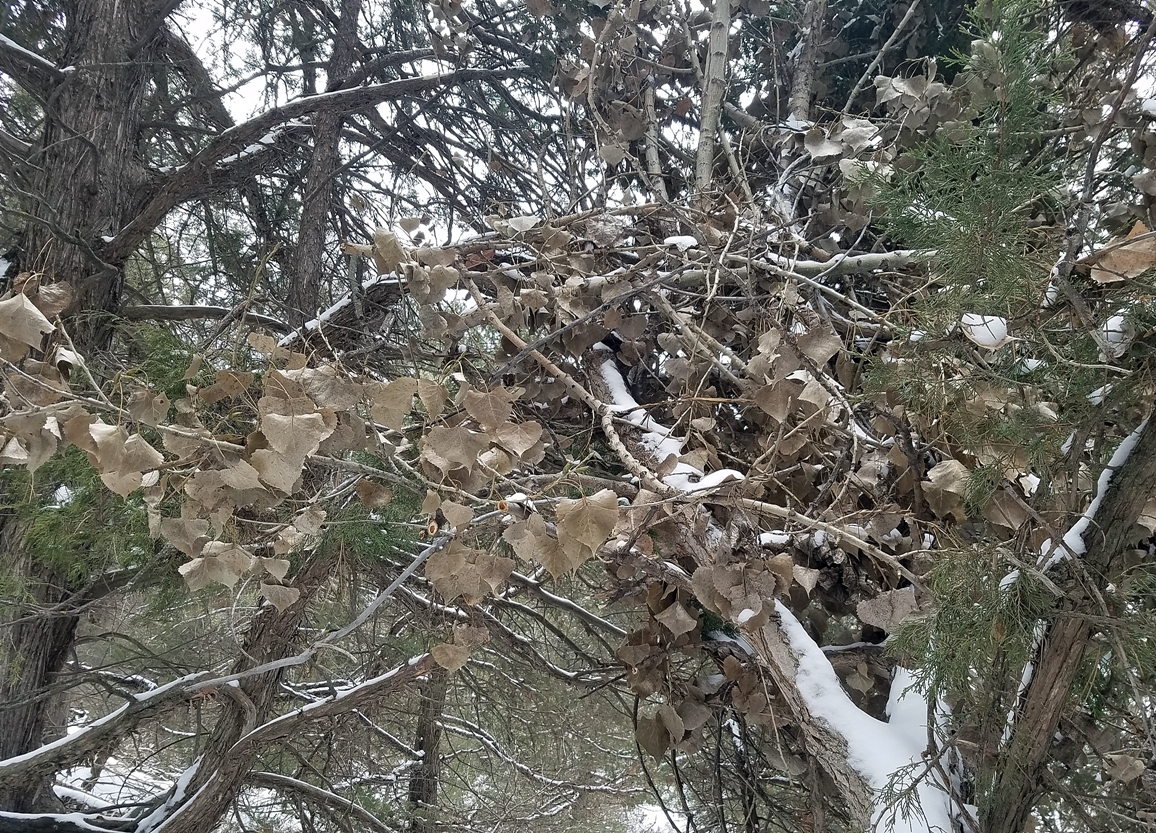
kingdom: Plantae
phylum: Tracheophyta
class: Magnoliopsida
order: Malpighiales
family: Salicaceae
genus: Populus
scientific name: Populus deltoides
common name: Eastern cottonwood
